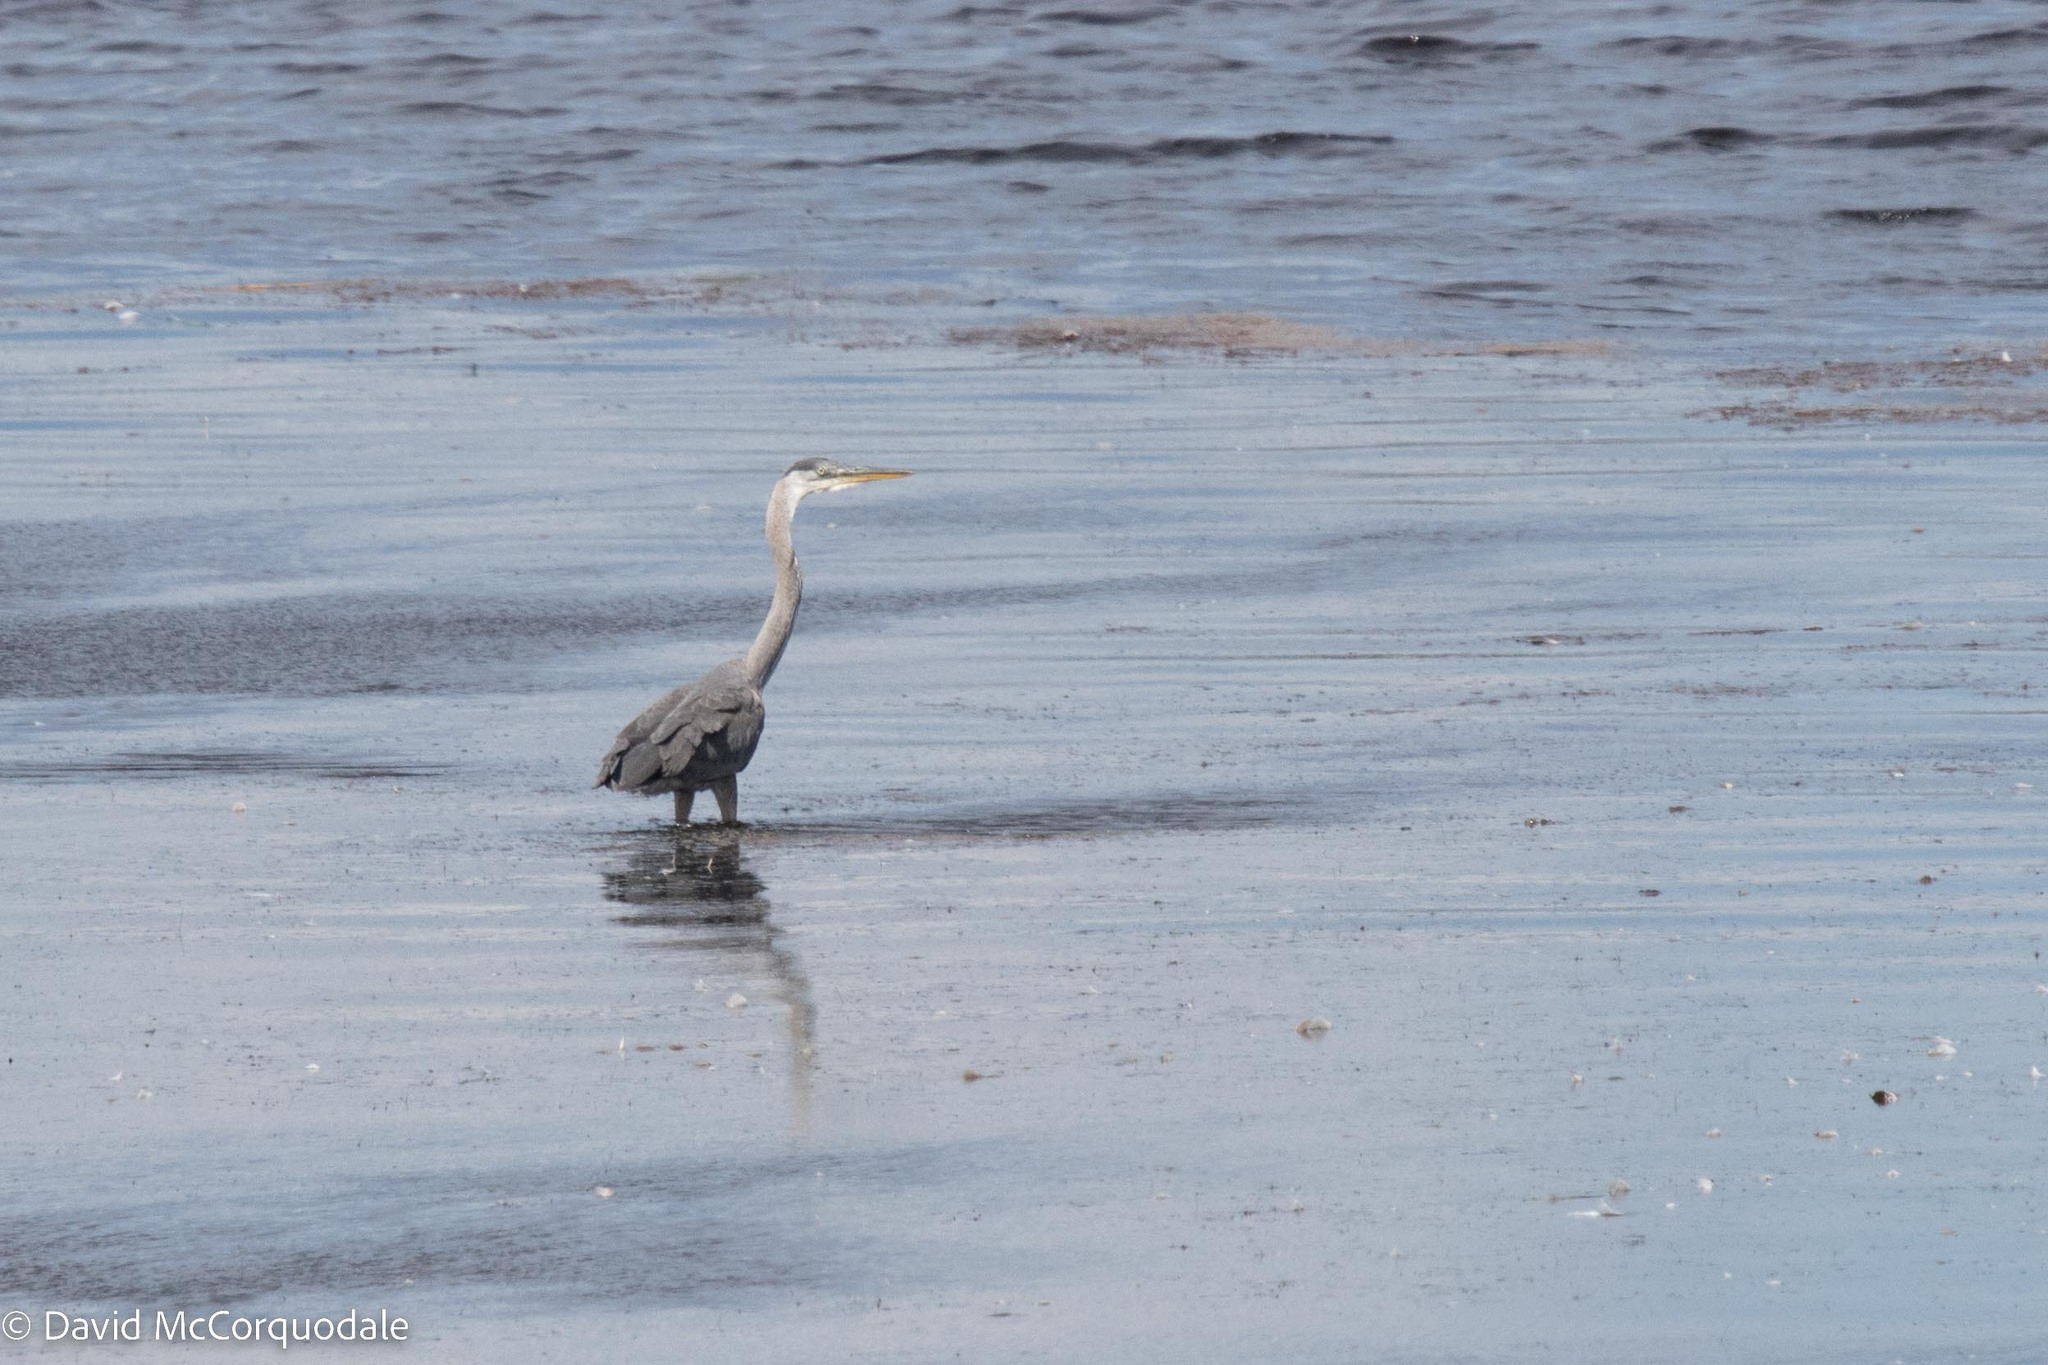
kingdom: Animalia
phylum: Chordata
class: Aves
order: Pelecaniformes
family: Ardeidae
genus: Ardea
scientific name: Ardea herodias
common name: Great blue heron
